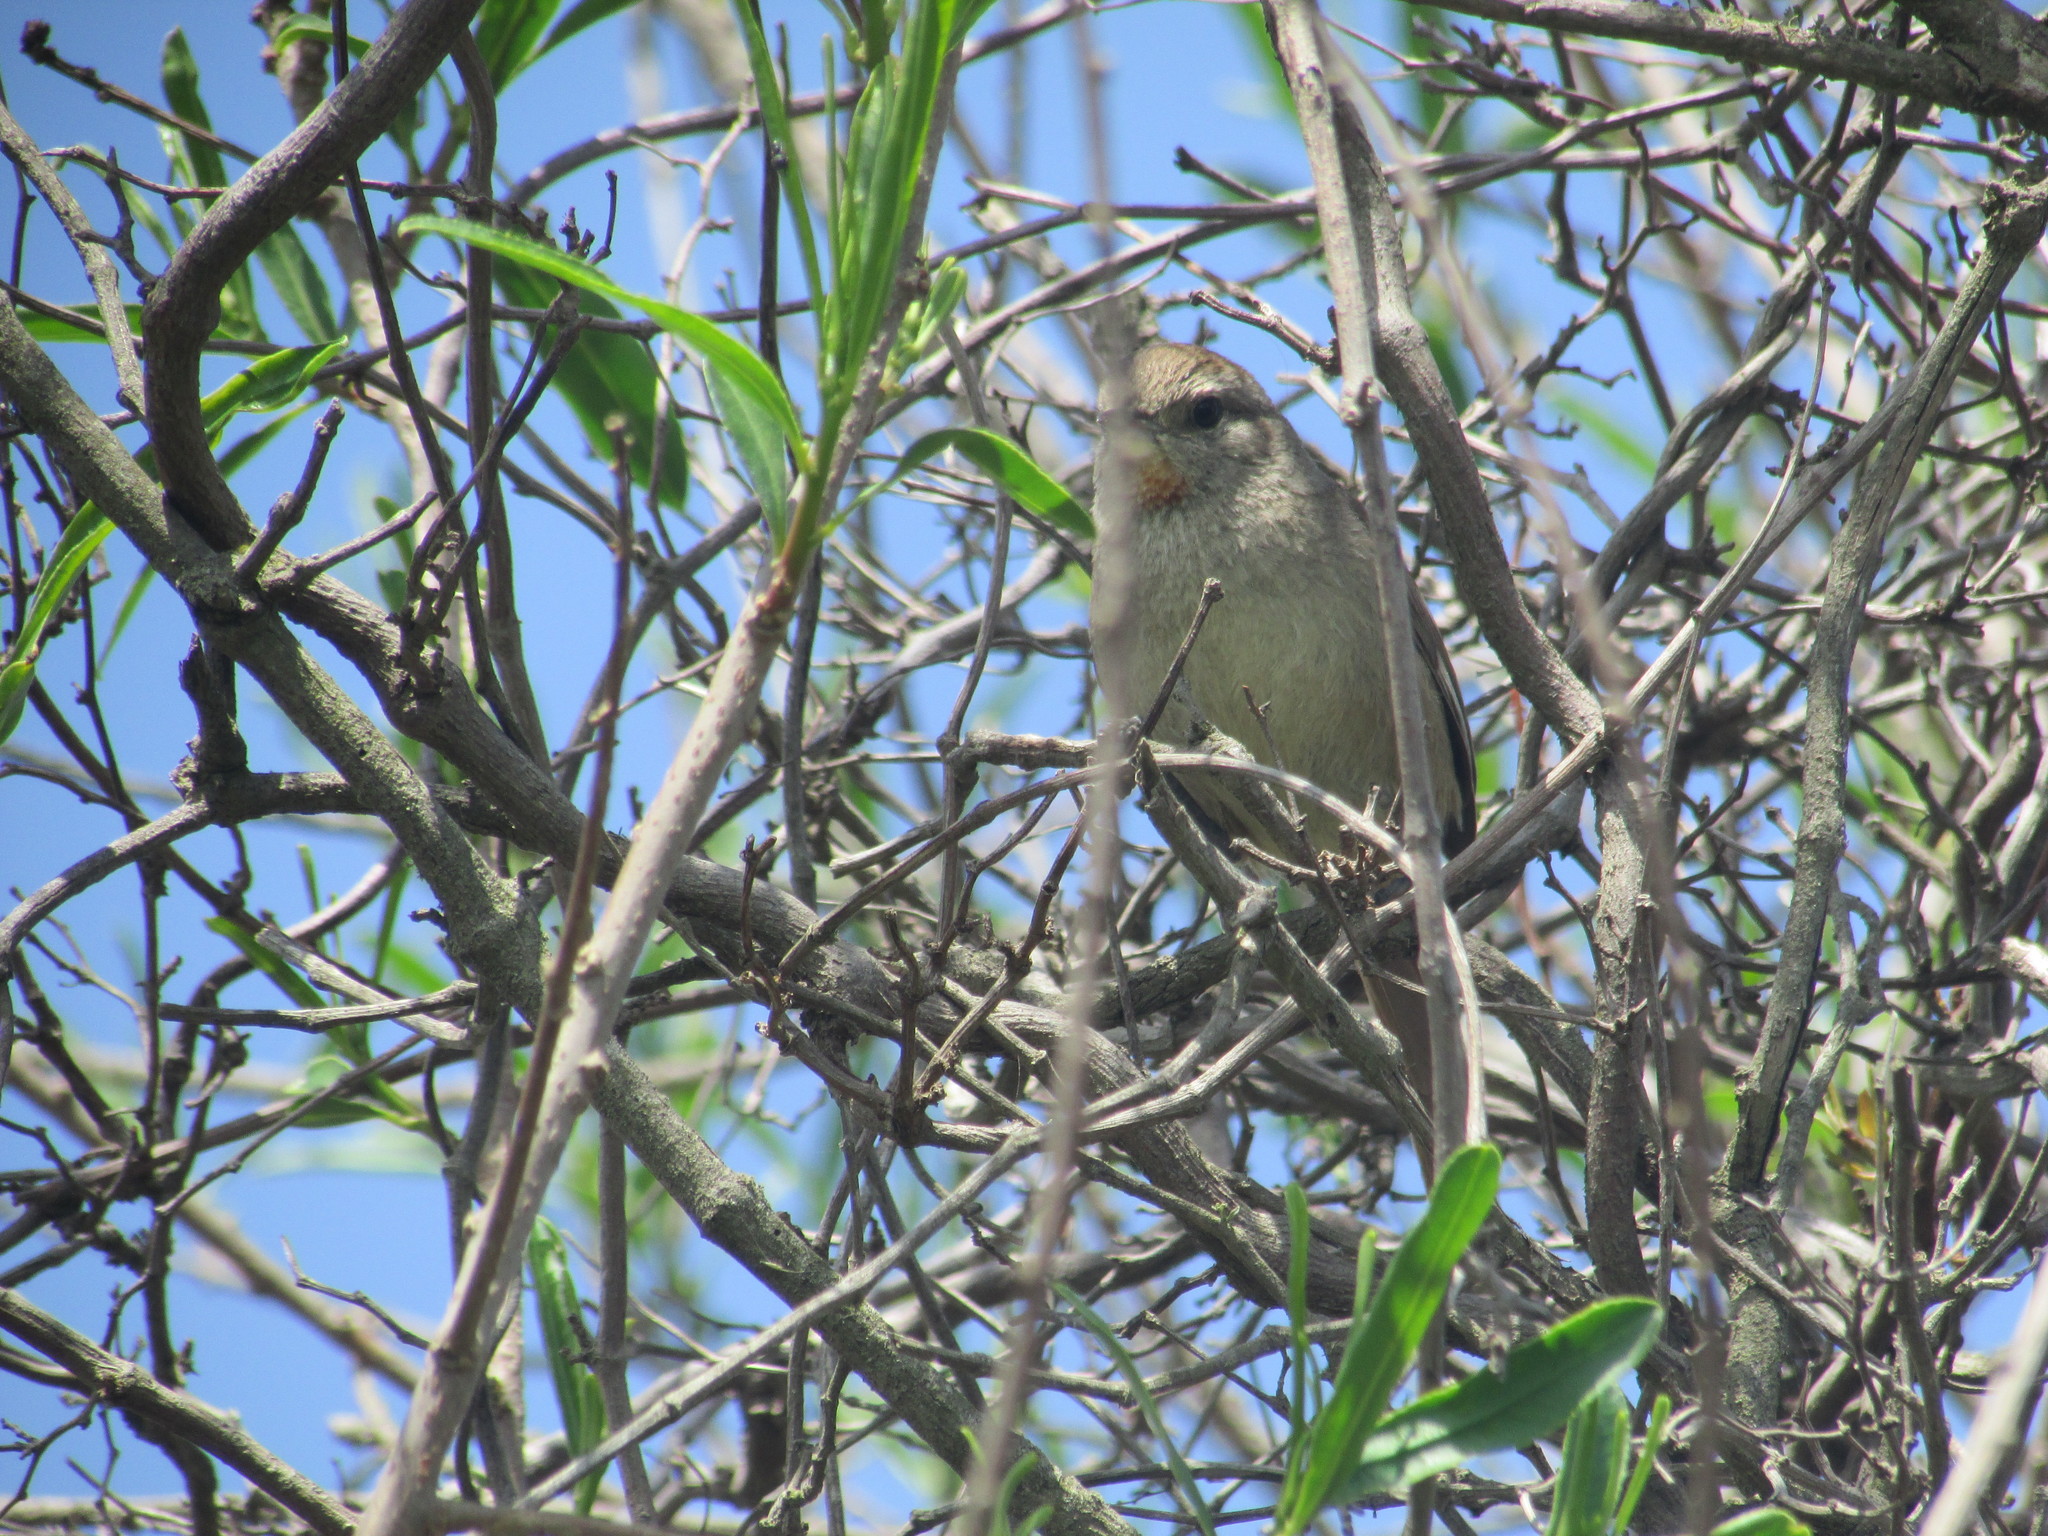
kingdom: Animalia
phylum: Chordata
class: Aves
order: Passeriformes
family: Furnariidae
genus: Asthenes
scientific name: Asthenes baeri
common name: Short-billed canastero
